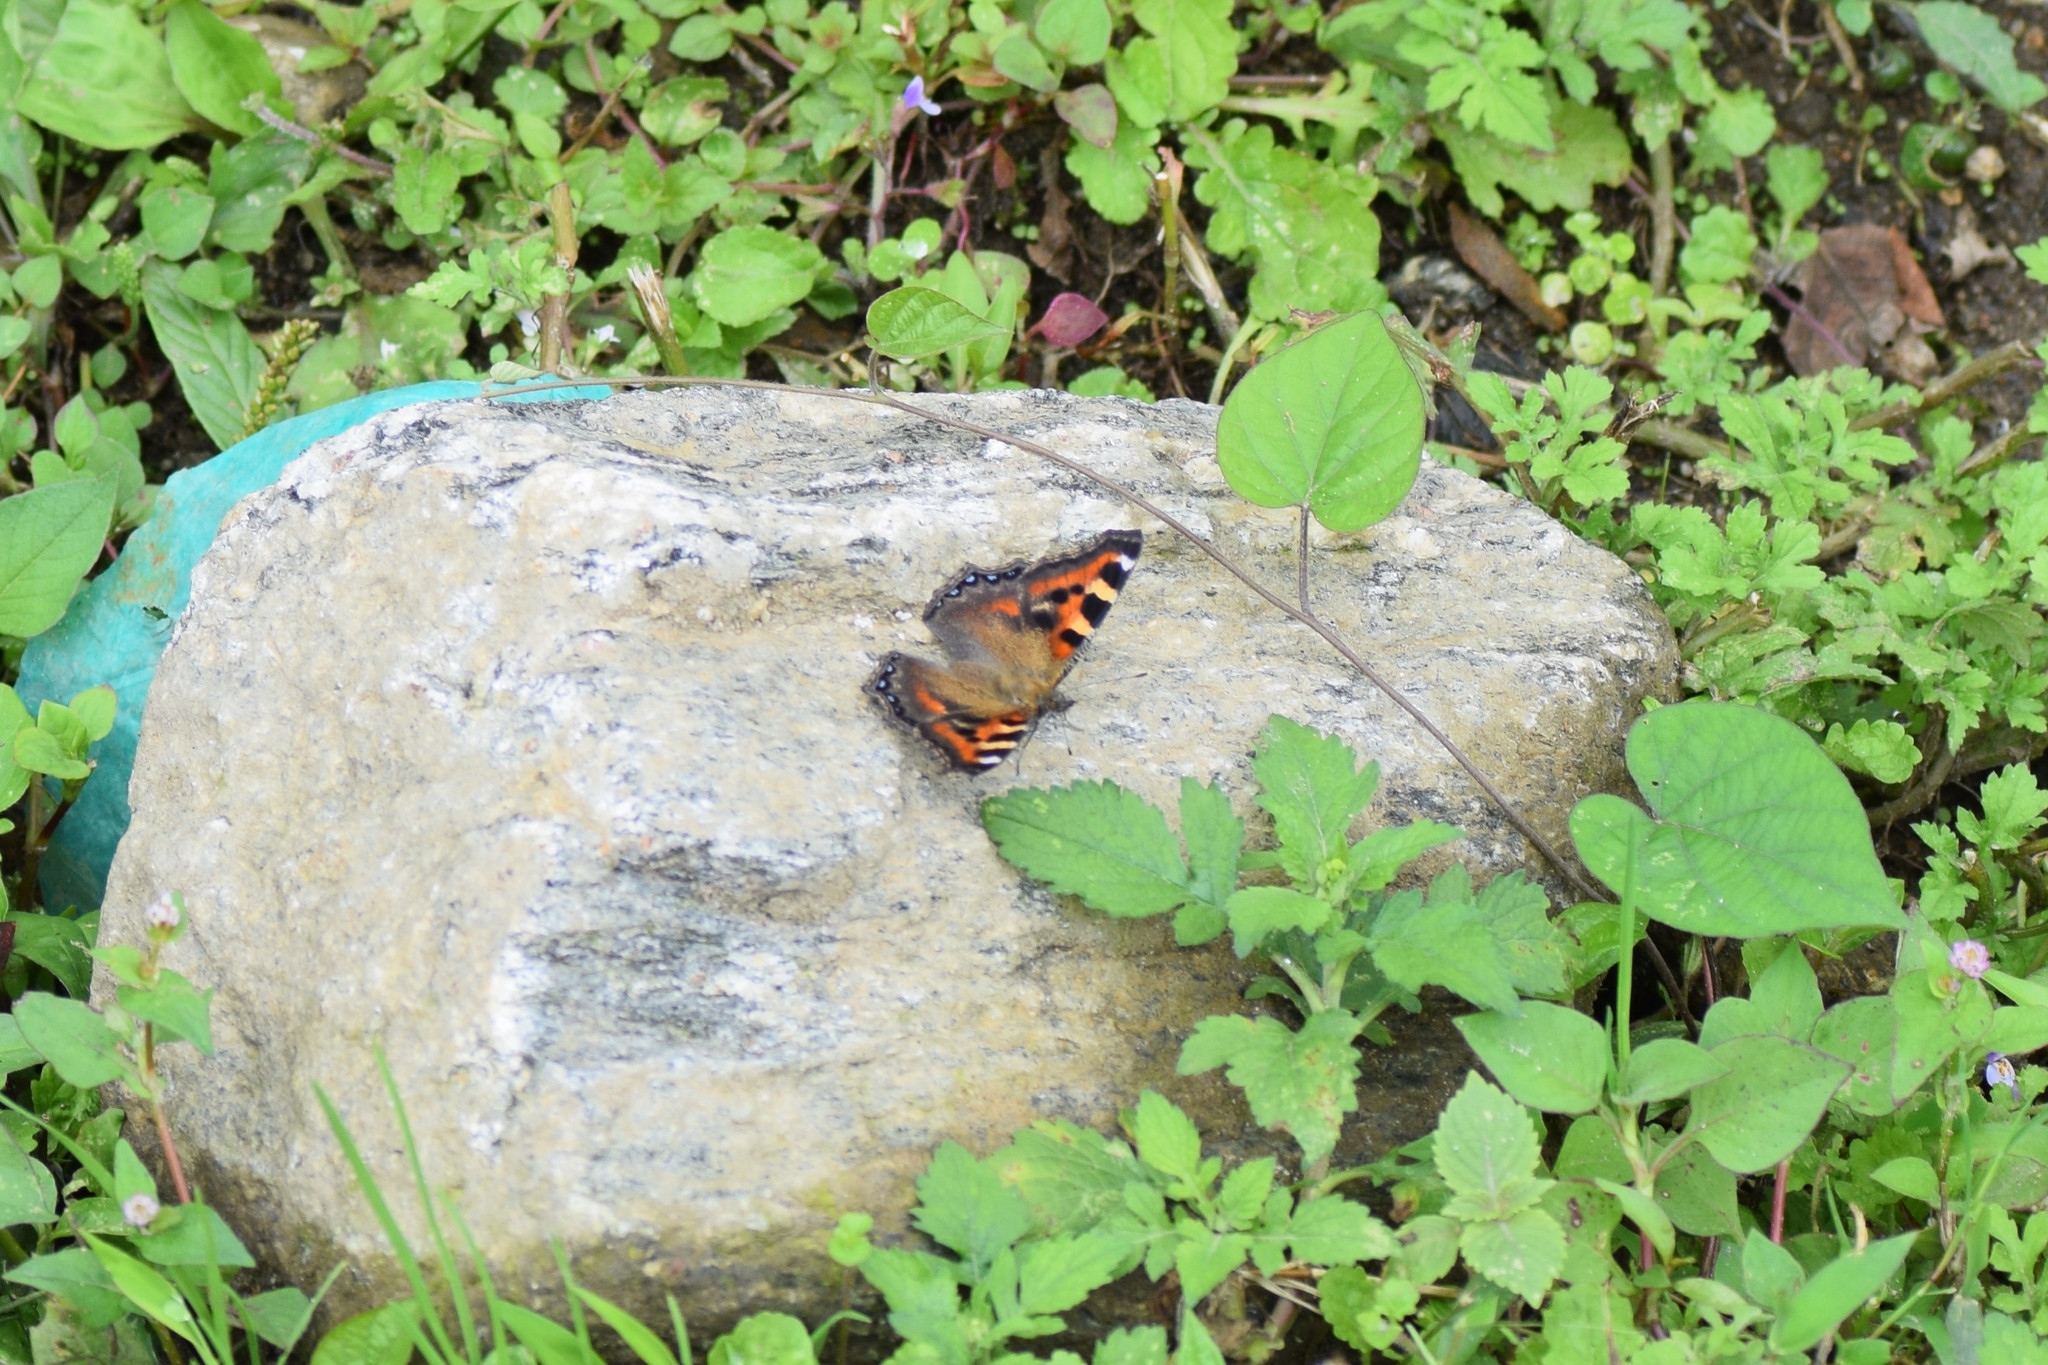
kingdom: Animalia
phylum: Arthropoda
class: Insecta
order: Lepidoptera
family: Nymphalidae
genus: Aglais
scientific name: Aglais caschmirensis
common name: Indian tortoiseshell
